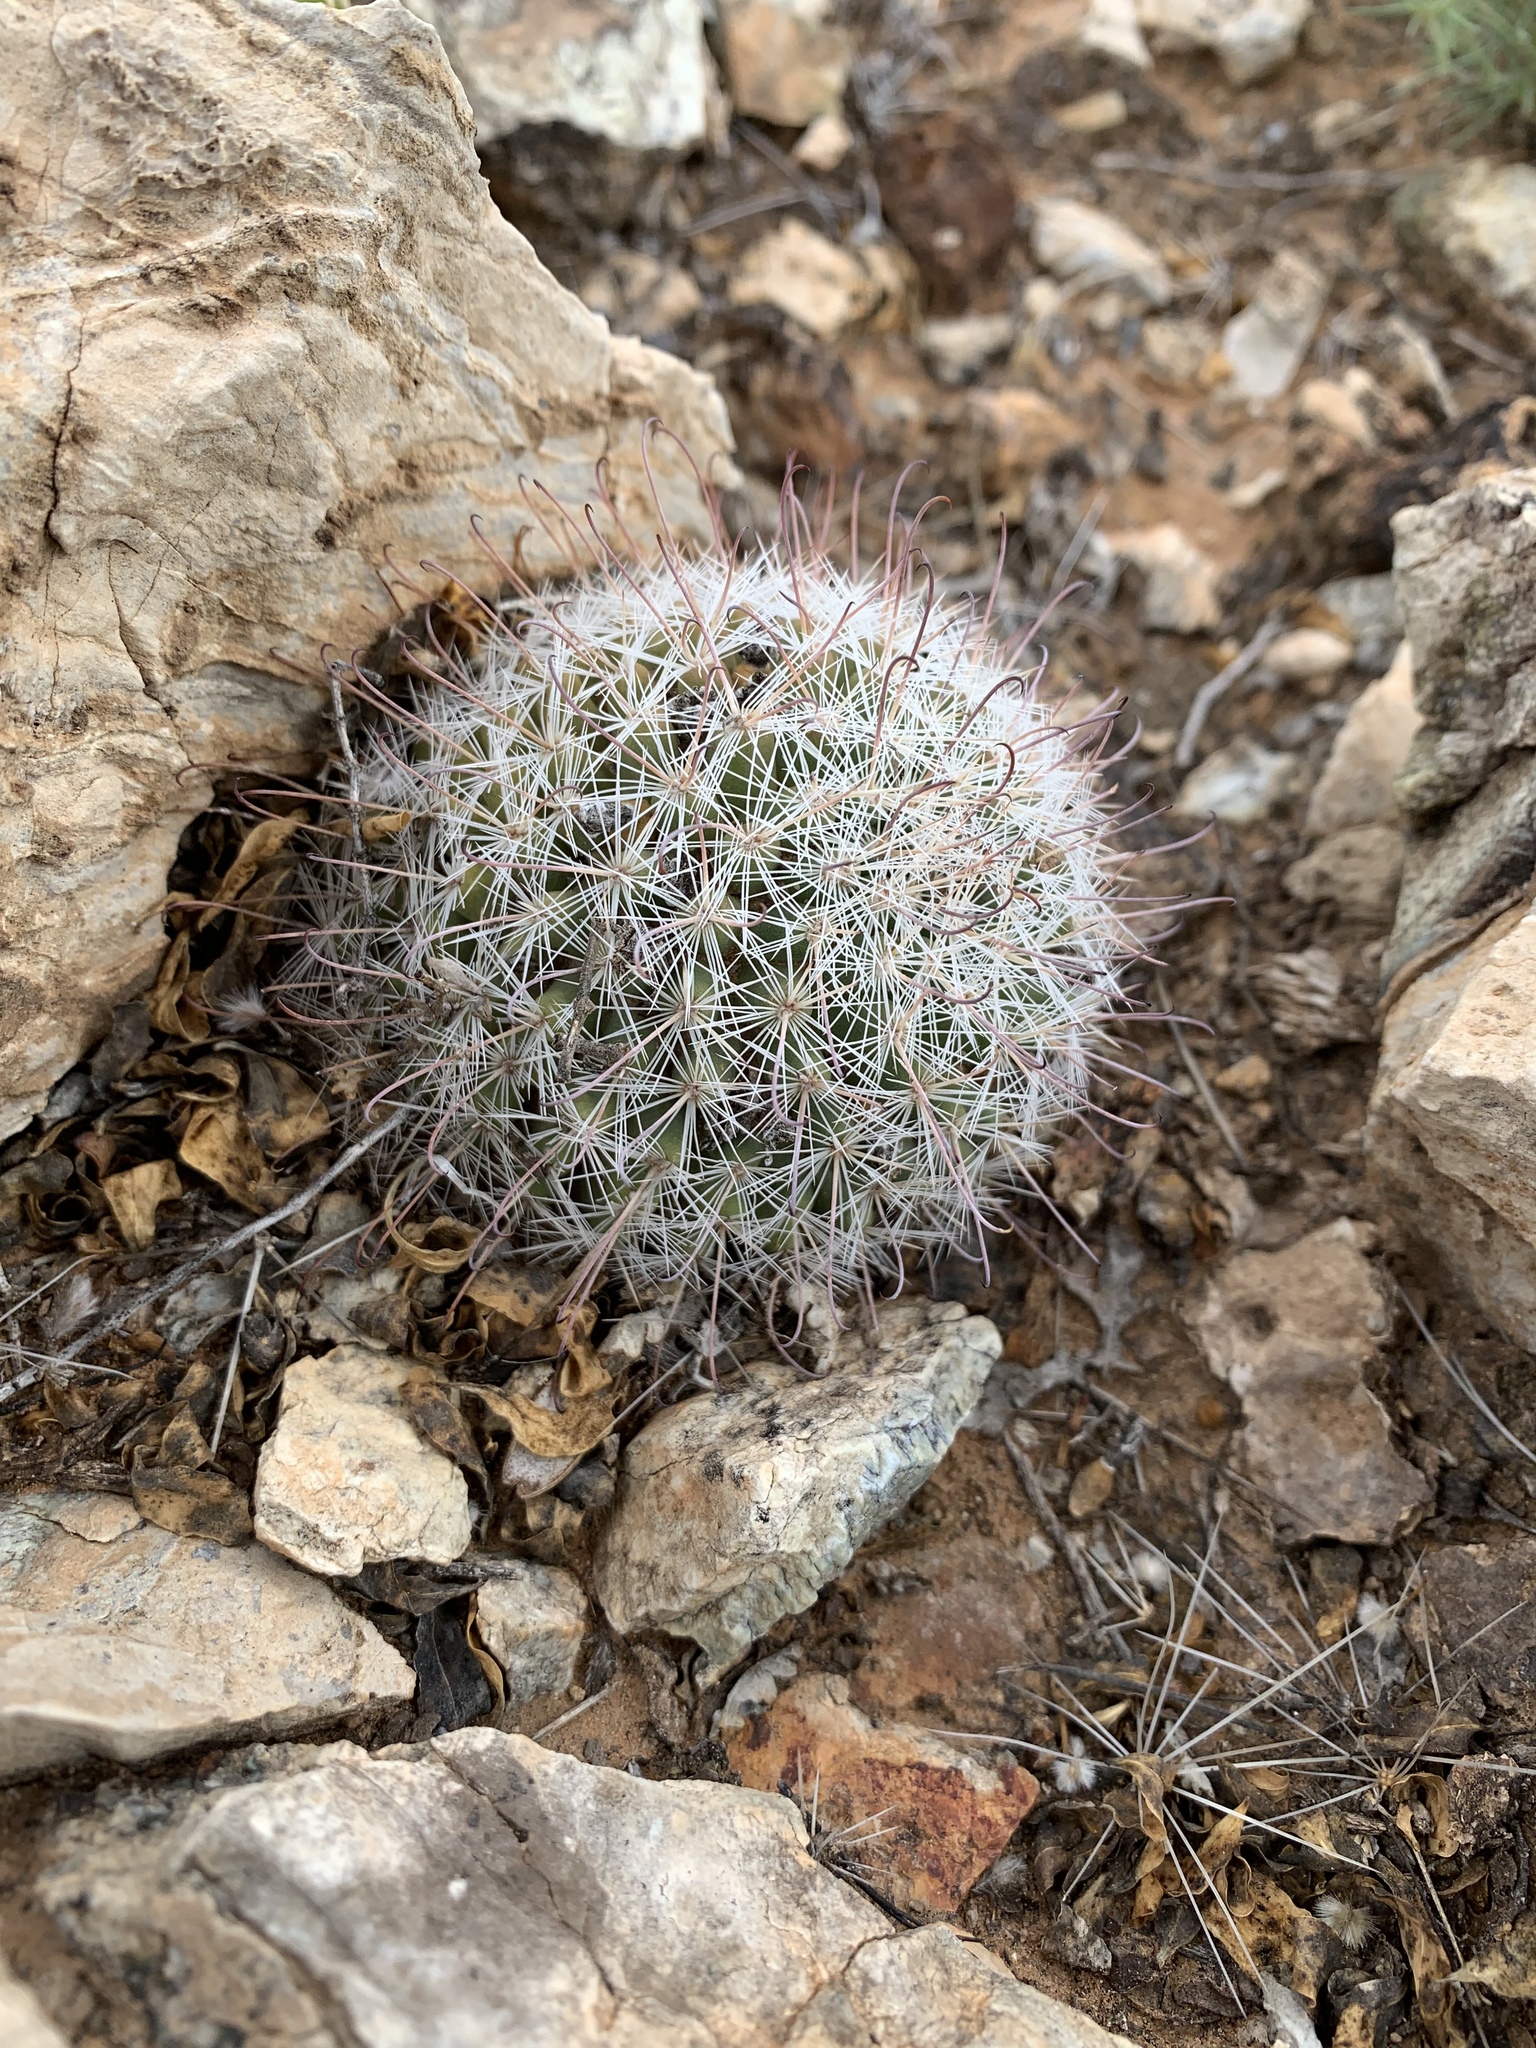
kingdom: Plantae
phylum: Tracheophyta
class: Magnoliopsida
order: Caryophyllales
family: Cactaceae
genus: Cochemiea
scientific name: Cochemiea grahamii
